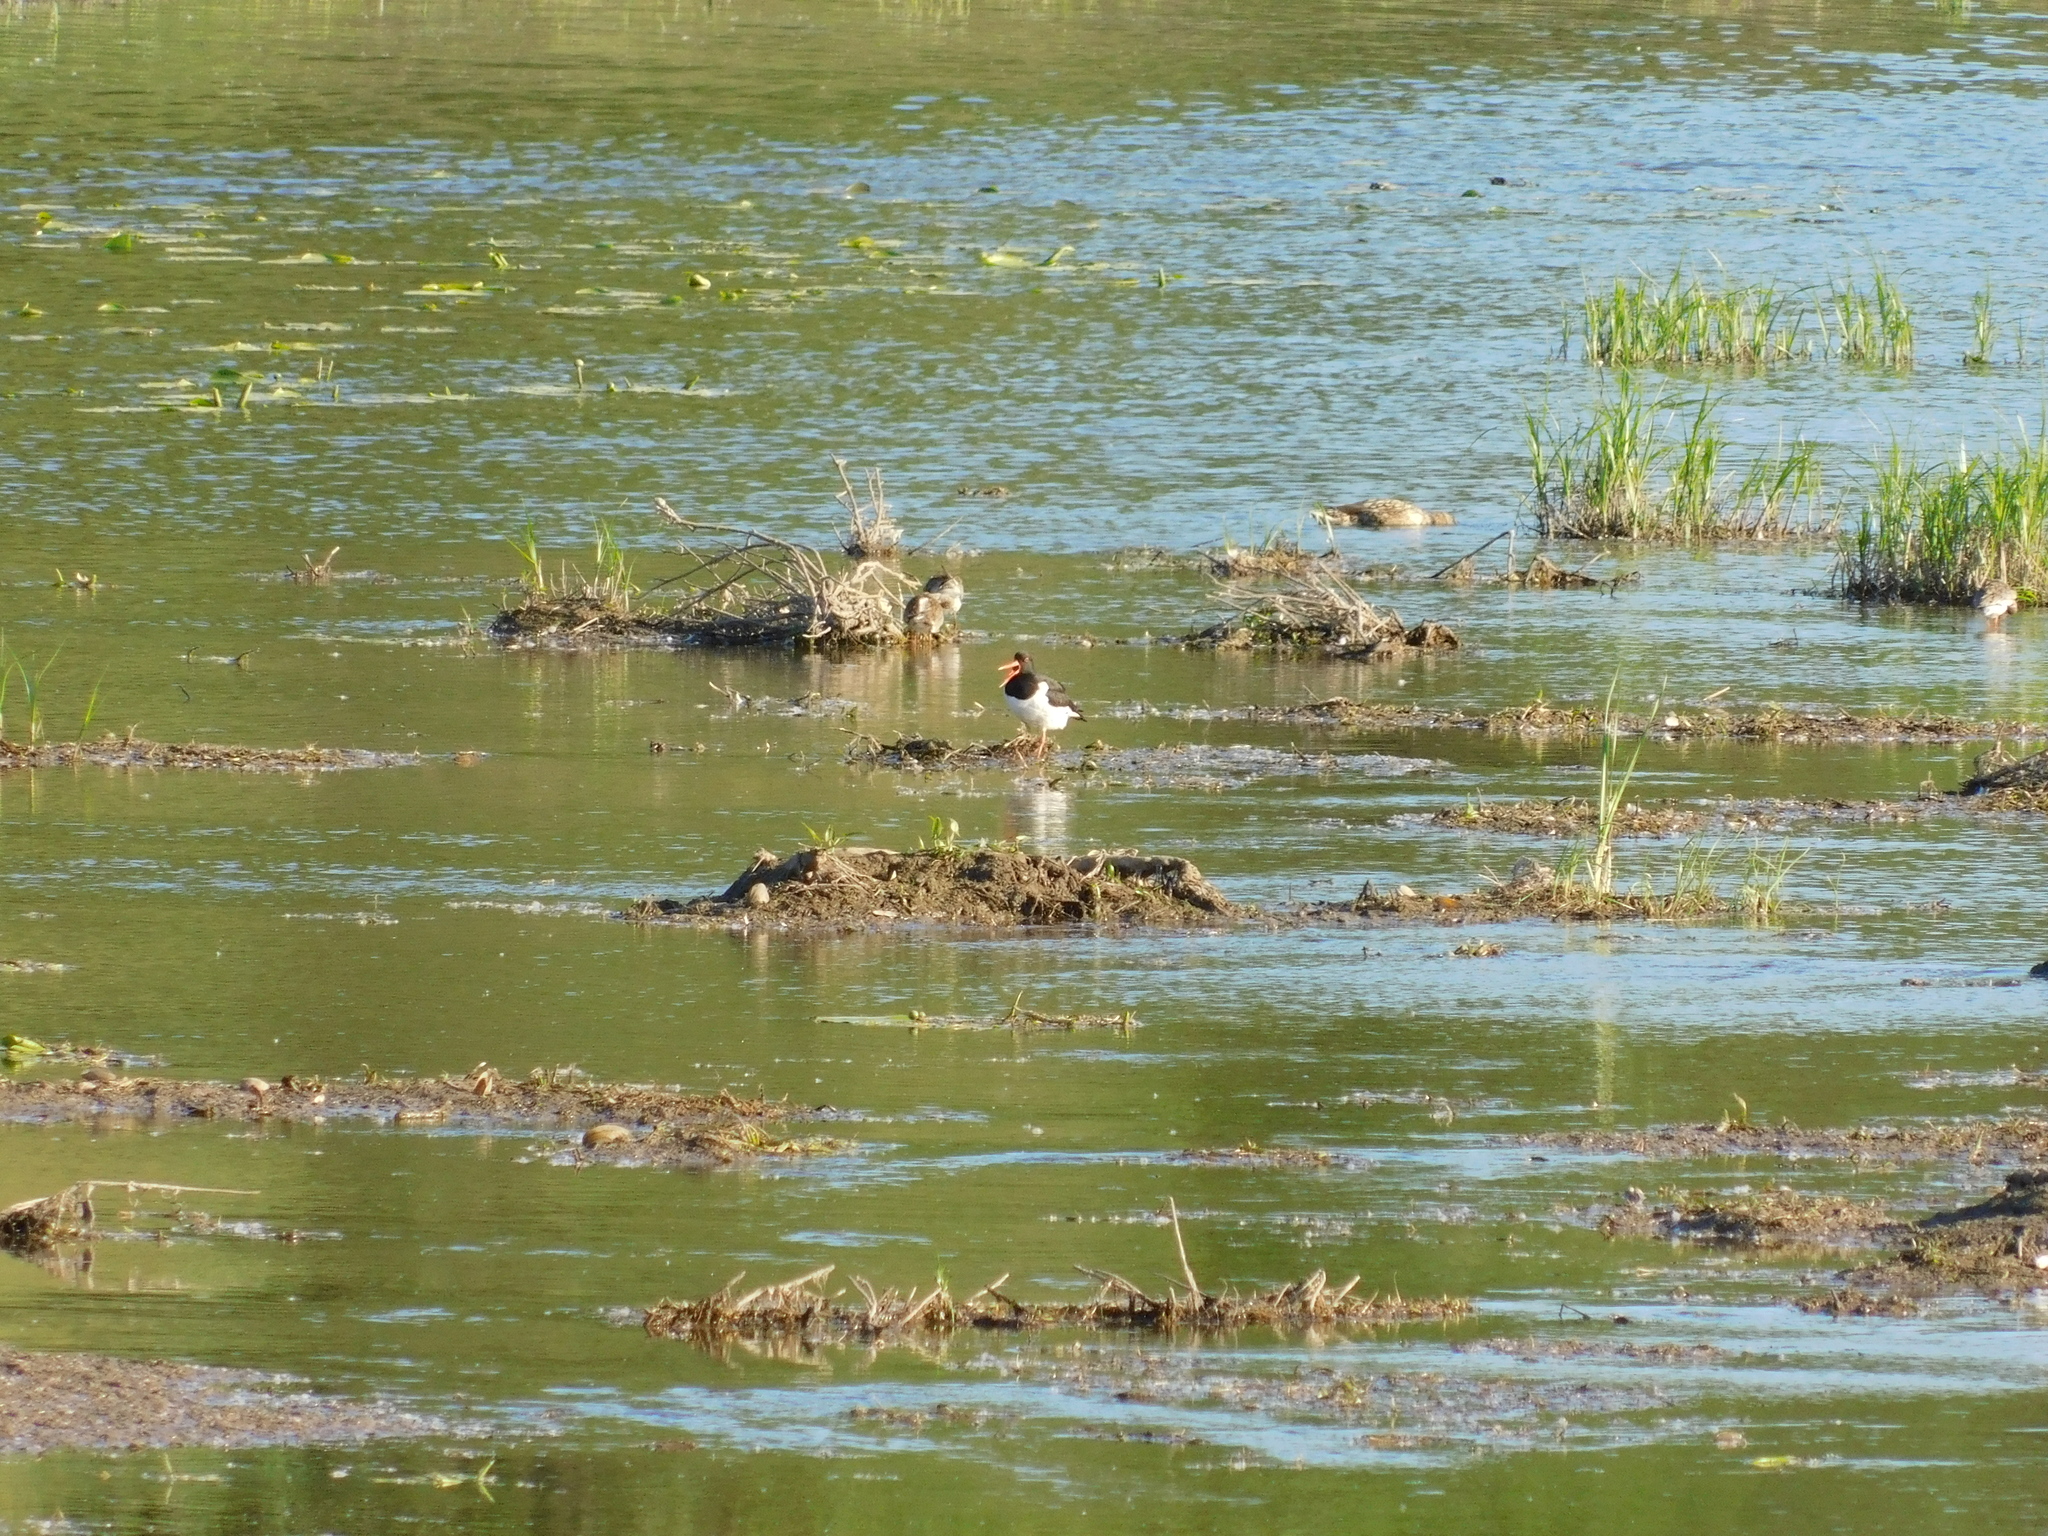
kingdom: Animalia
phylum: Chordata
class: Aves
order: Charadriiformes
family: Haematopodidae
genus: Haematopus
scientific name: Haematopus ostralegus
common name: Eurasian oystercatcher
